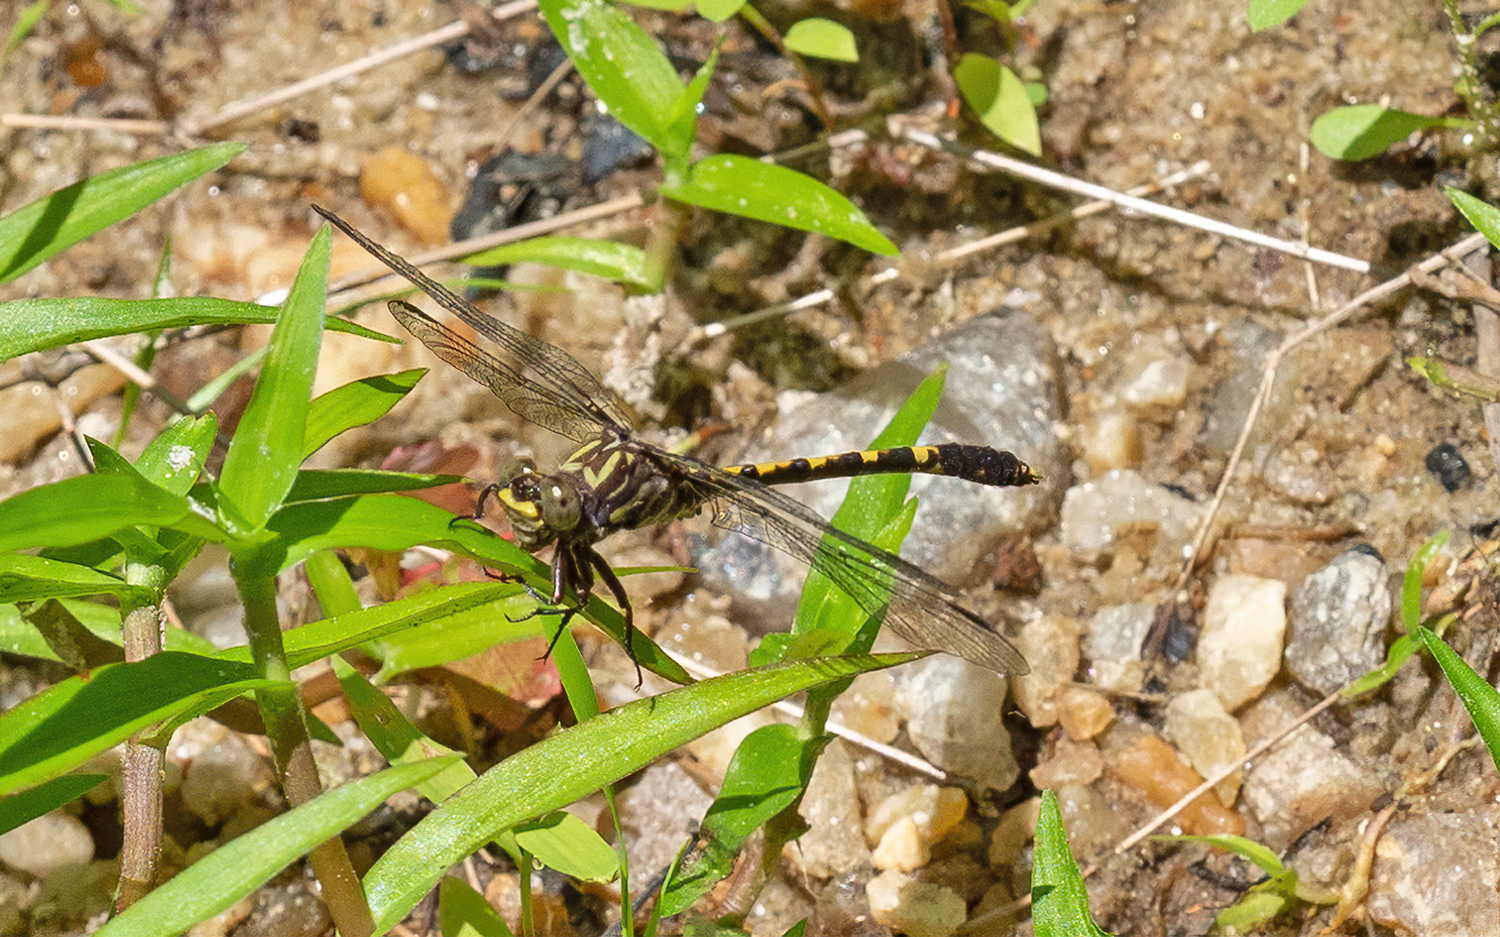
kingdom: Animalia
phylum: Arthropoda
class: Insecta
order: Odonata
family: Gomphidae
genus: Progomphus
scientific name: Progomphus obscurus
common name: Common sanddragon
